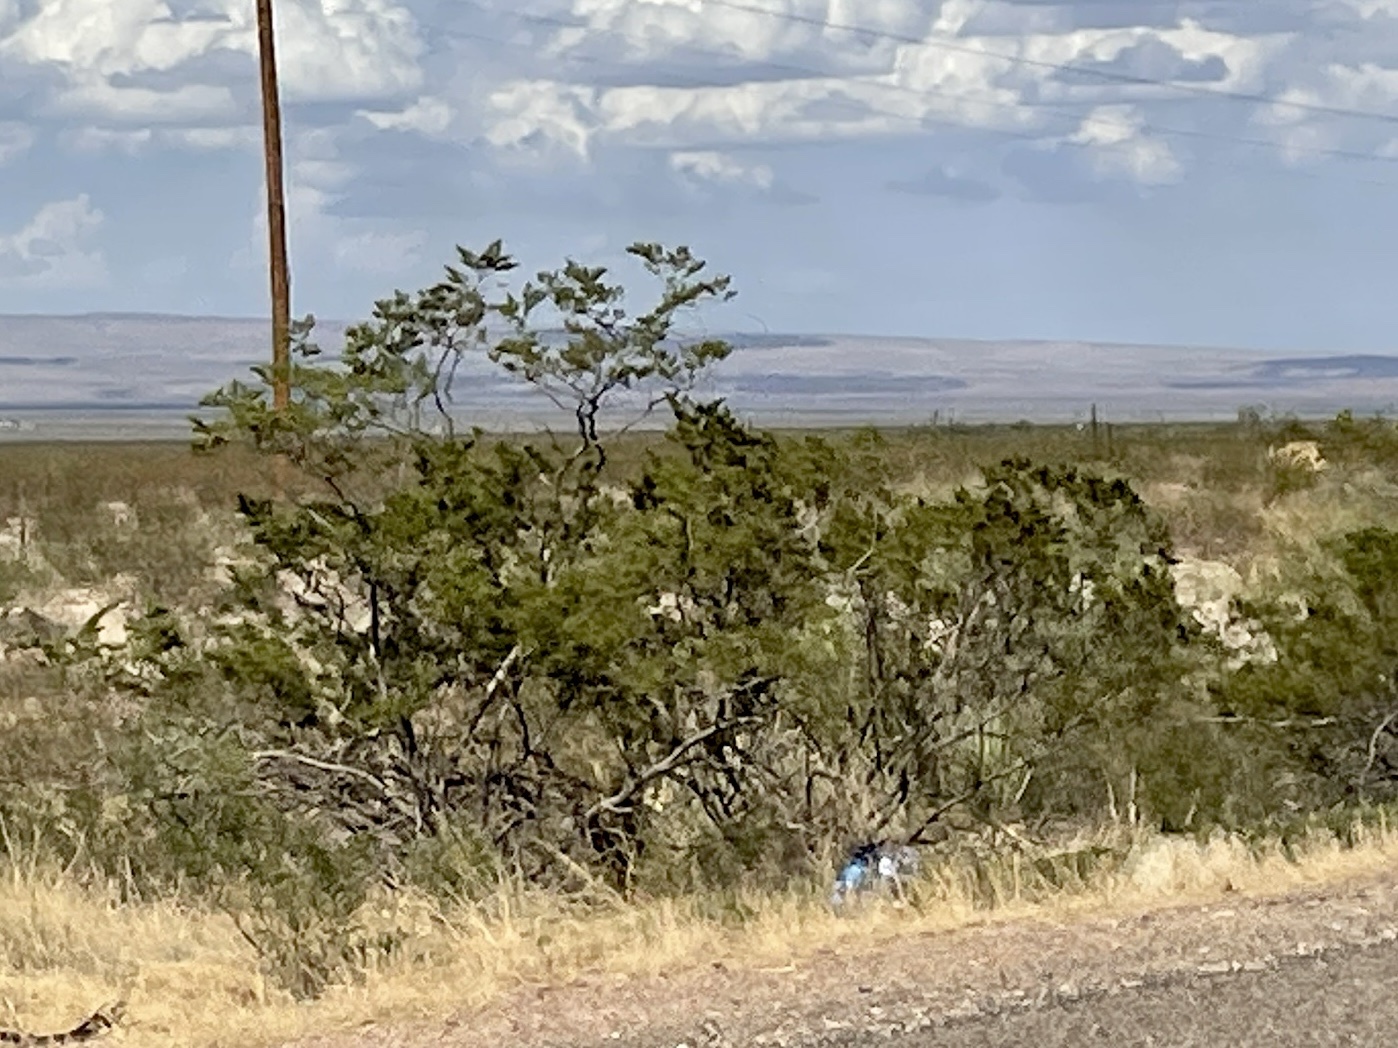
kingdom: Plantae
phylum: Tracheophyta
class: Magnoliopsida
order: Zygophyllales
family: Zygophyllaceae
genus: Larrea
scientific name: Larrea tridentata
